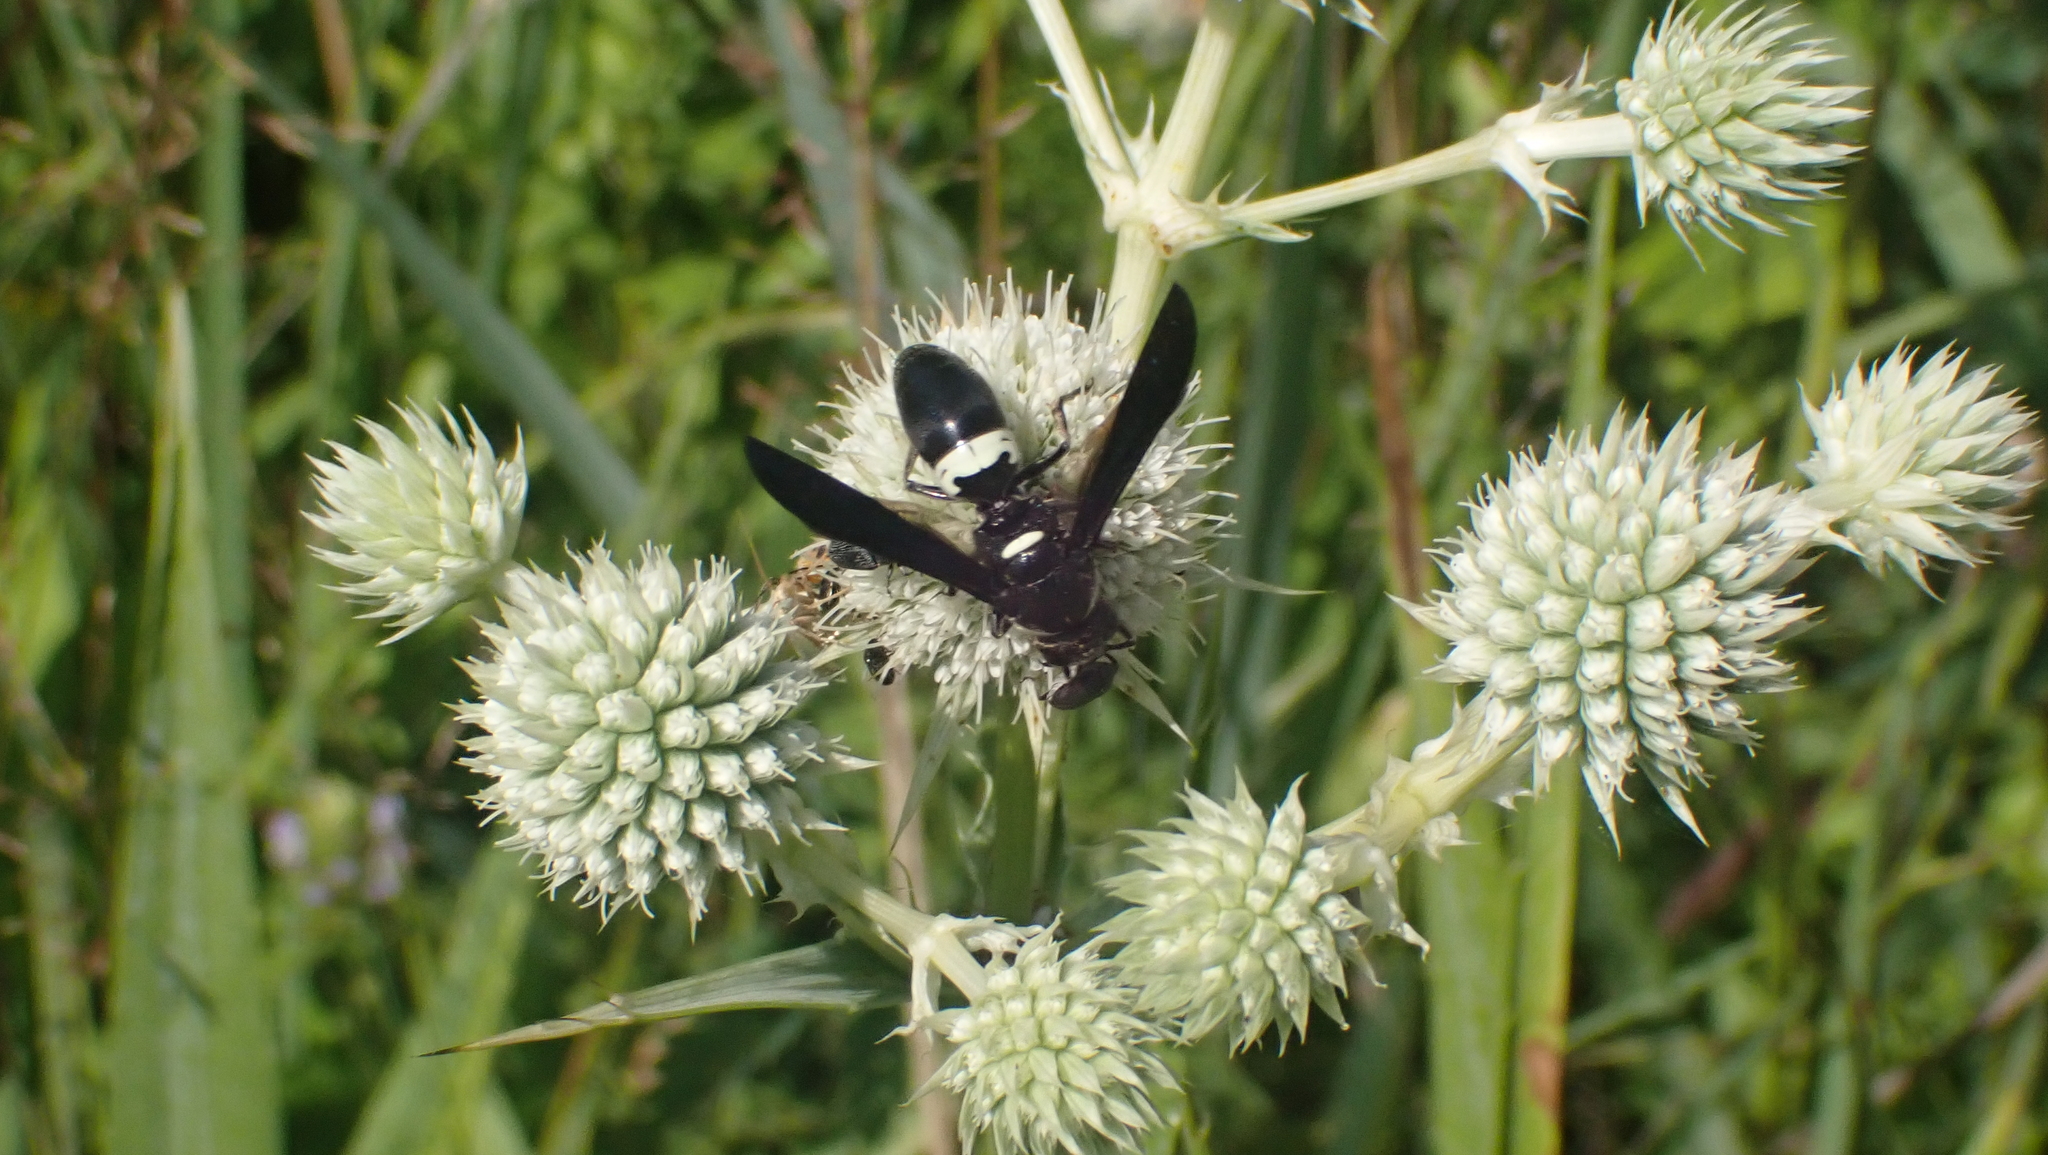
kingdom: Animalia
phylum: Arthropoda
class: Insecta
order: Hymenoptera
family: Eumenidae
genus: Monobia
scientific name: Monobia quadridens
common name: Four-toothed mason wasp
